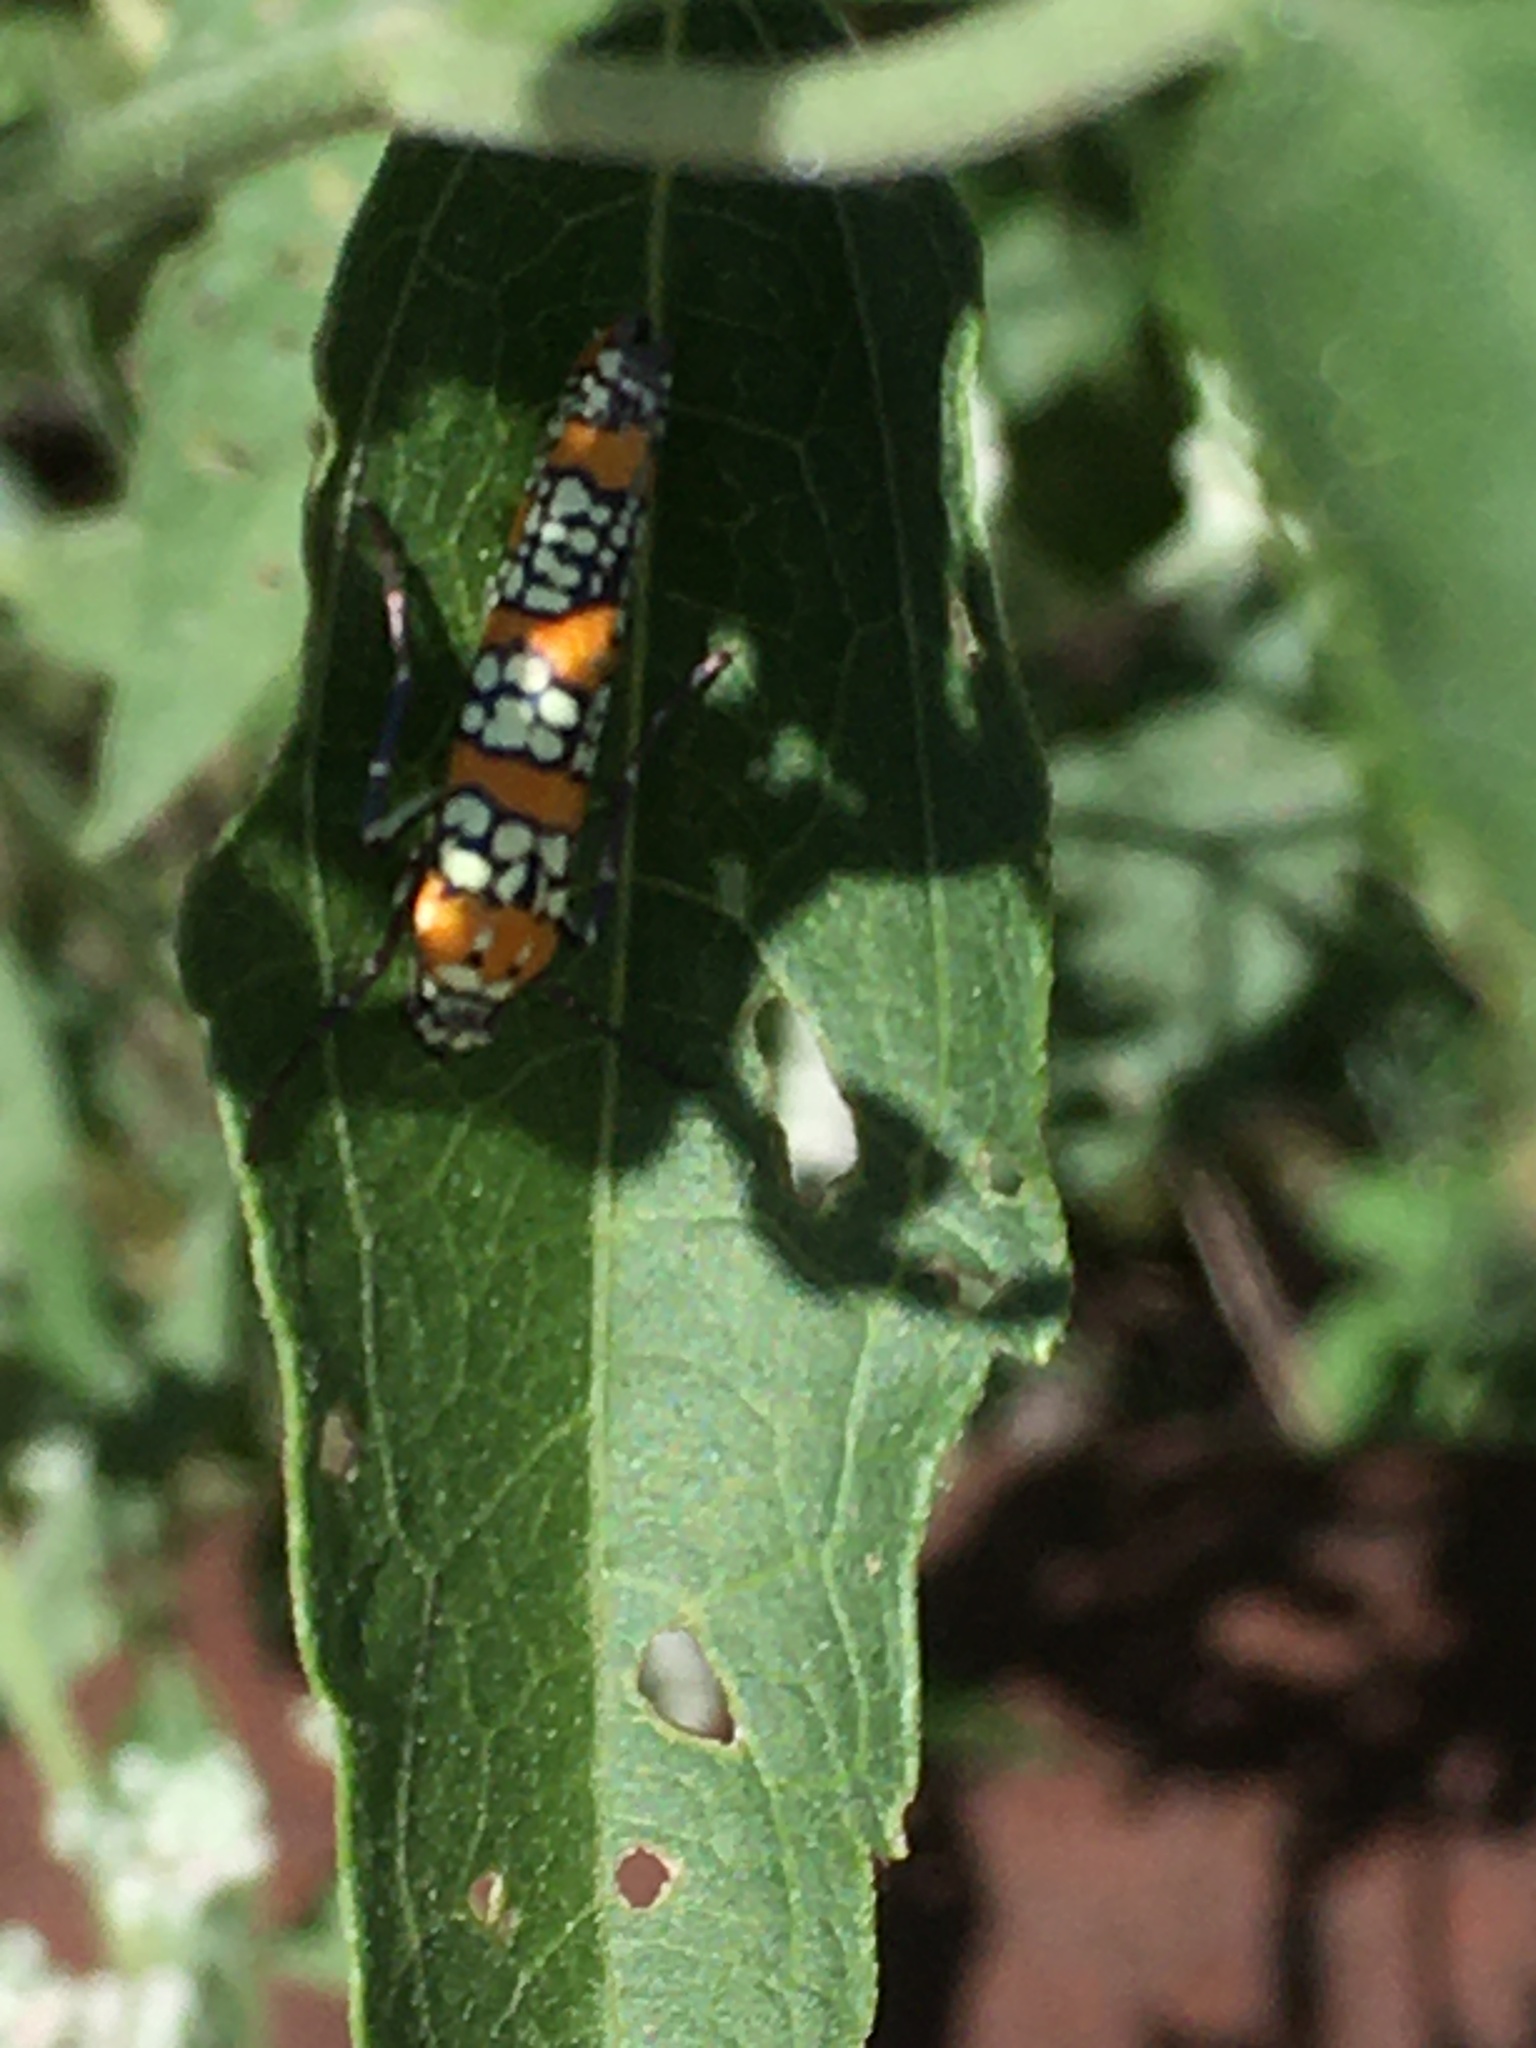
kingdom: Animalia
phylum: Arthropoda
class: Insecta
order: Lepidoptera
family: Attevidae
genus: Atteva
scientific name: Atteva punctella
